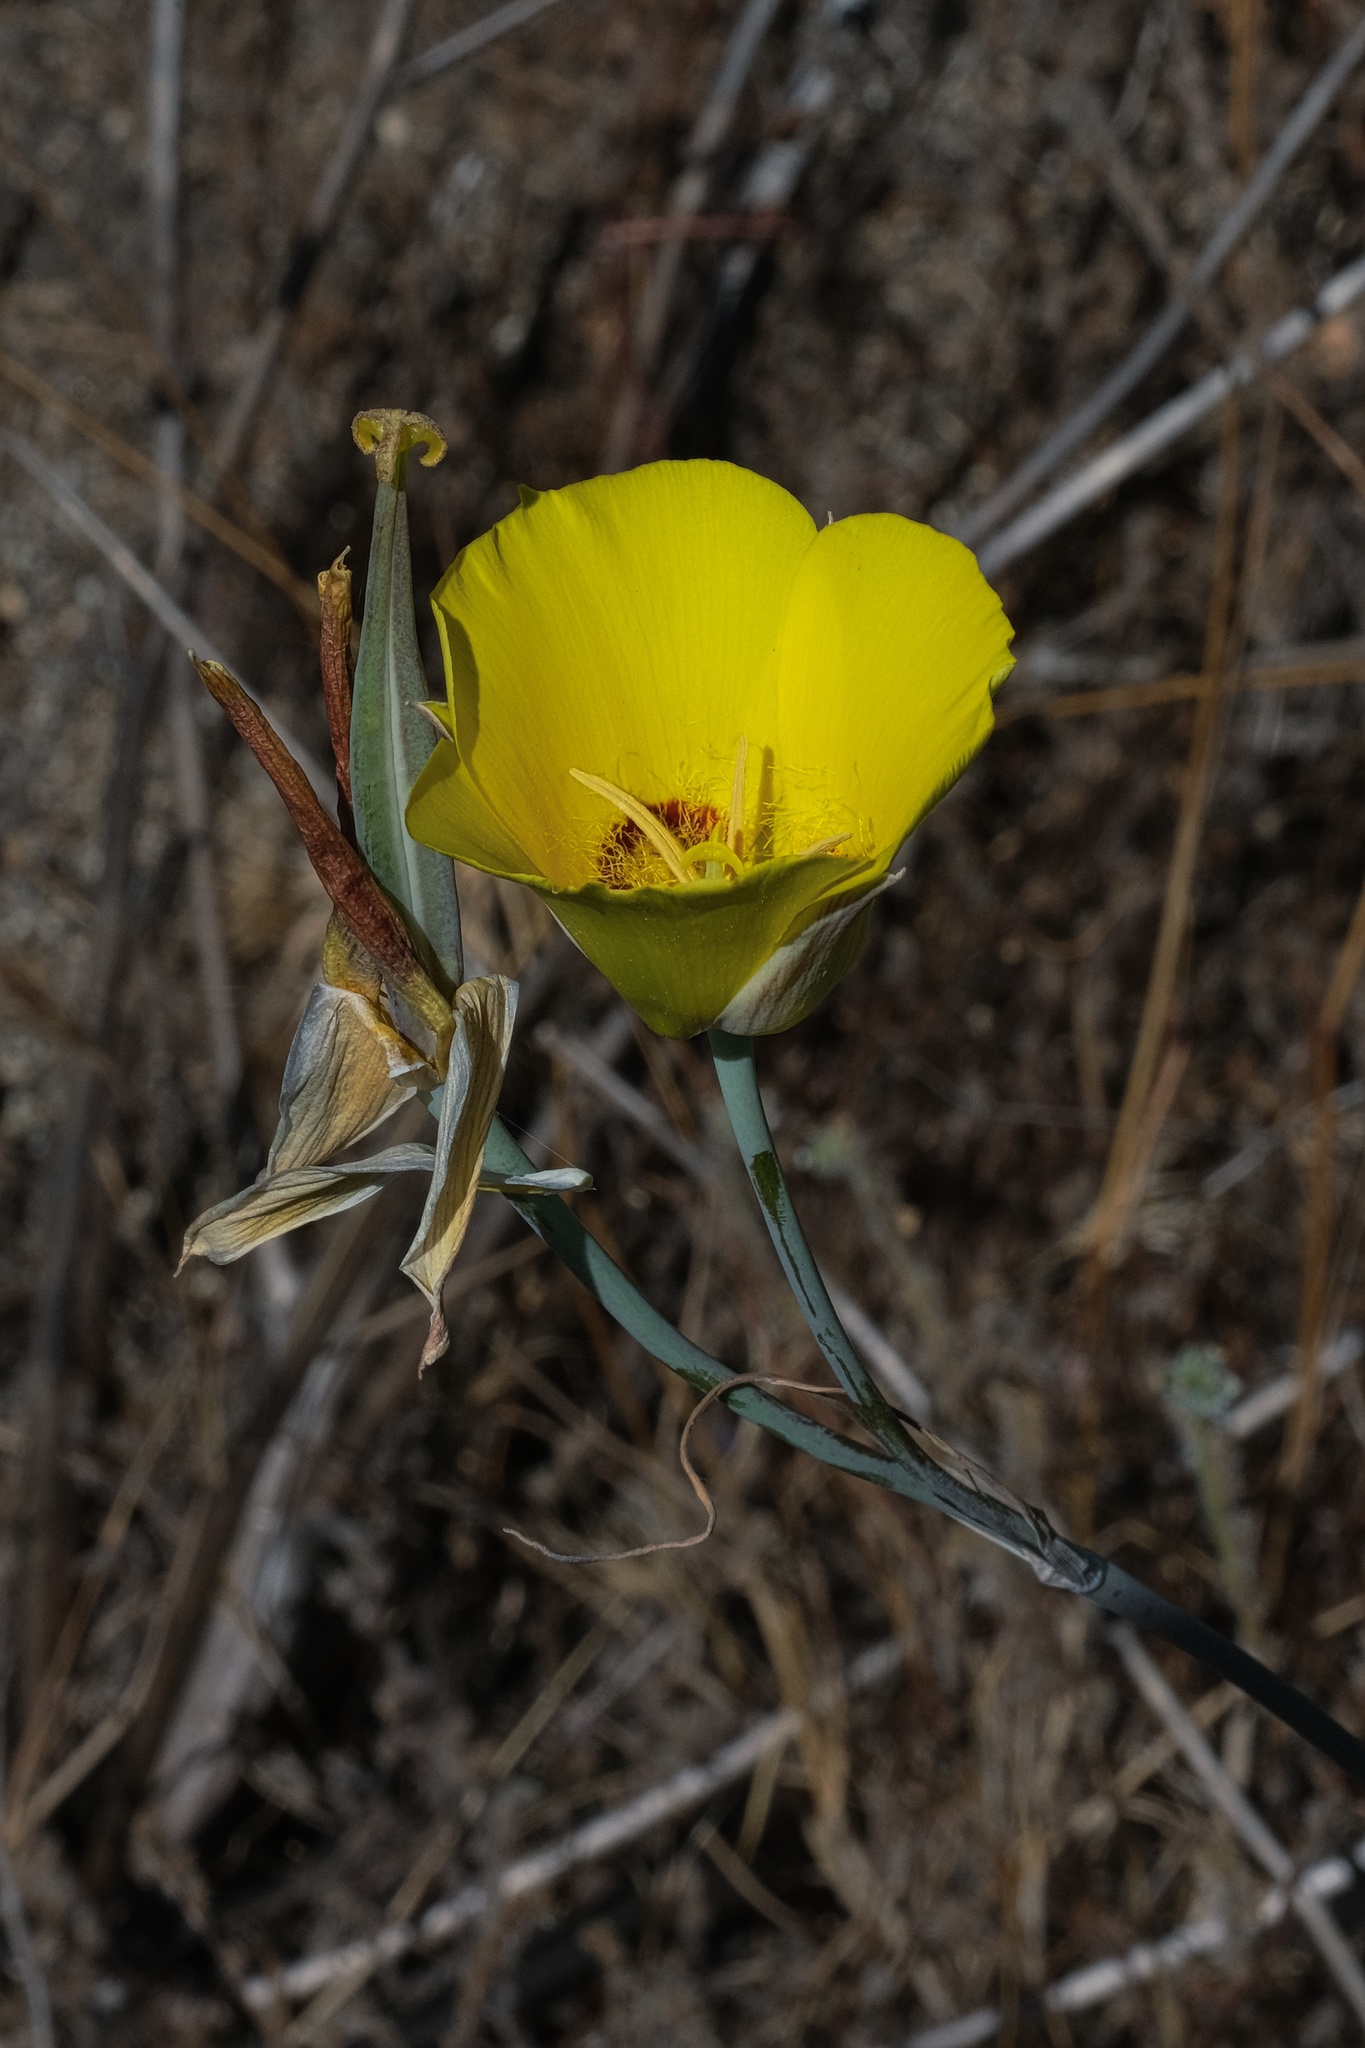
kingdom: Plantae
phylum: Tracheophyta
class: Liliopsida
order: Liliales
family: Liliaceae
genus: Calochortus
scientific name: Calochortus concolor
